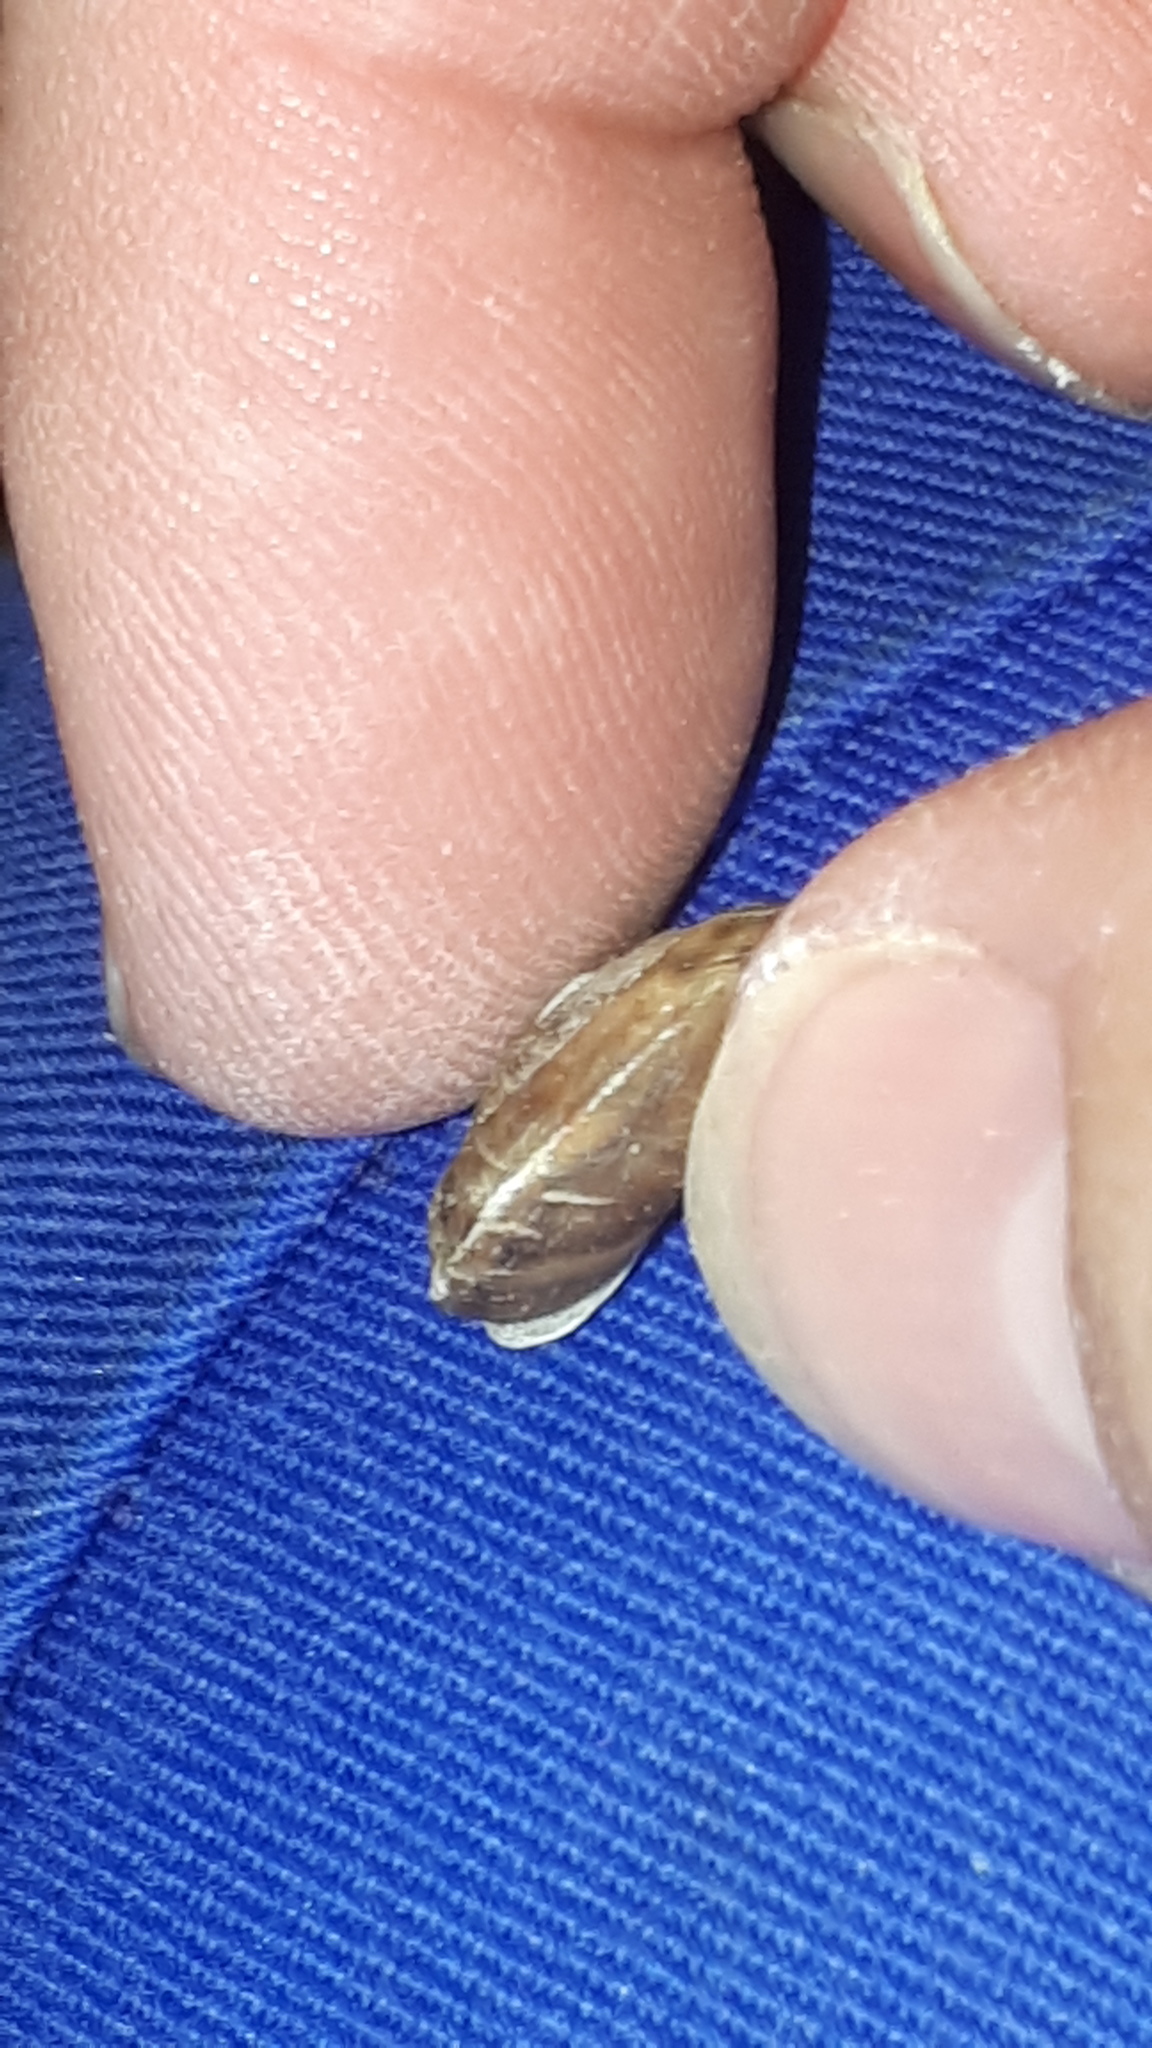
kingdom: Animalia
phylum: Mollusca
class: Gastropoda
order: Stylommatophora
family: Helicidae
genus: Helicigona
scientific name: Helicigona lapicida
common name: Lapidary snail
